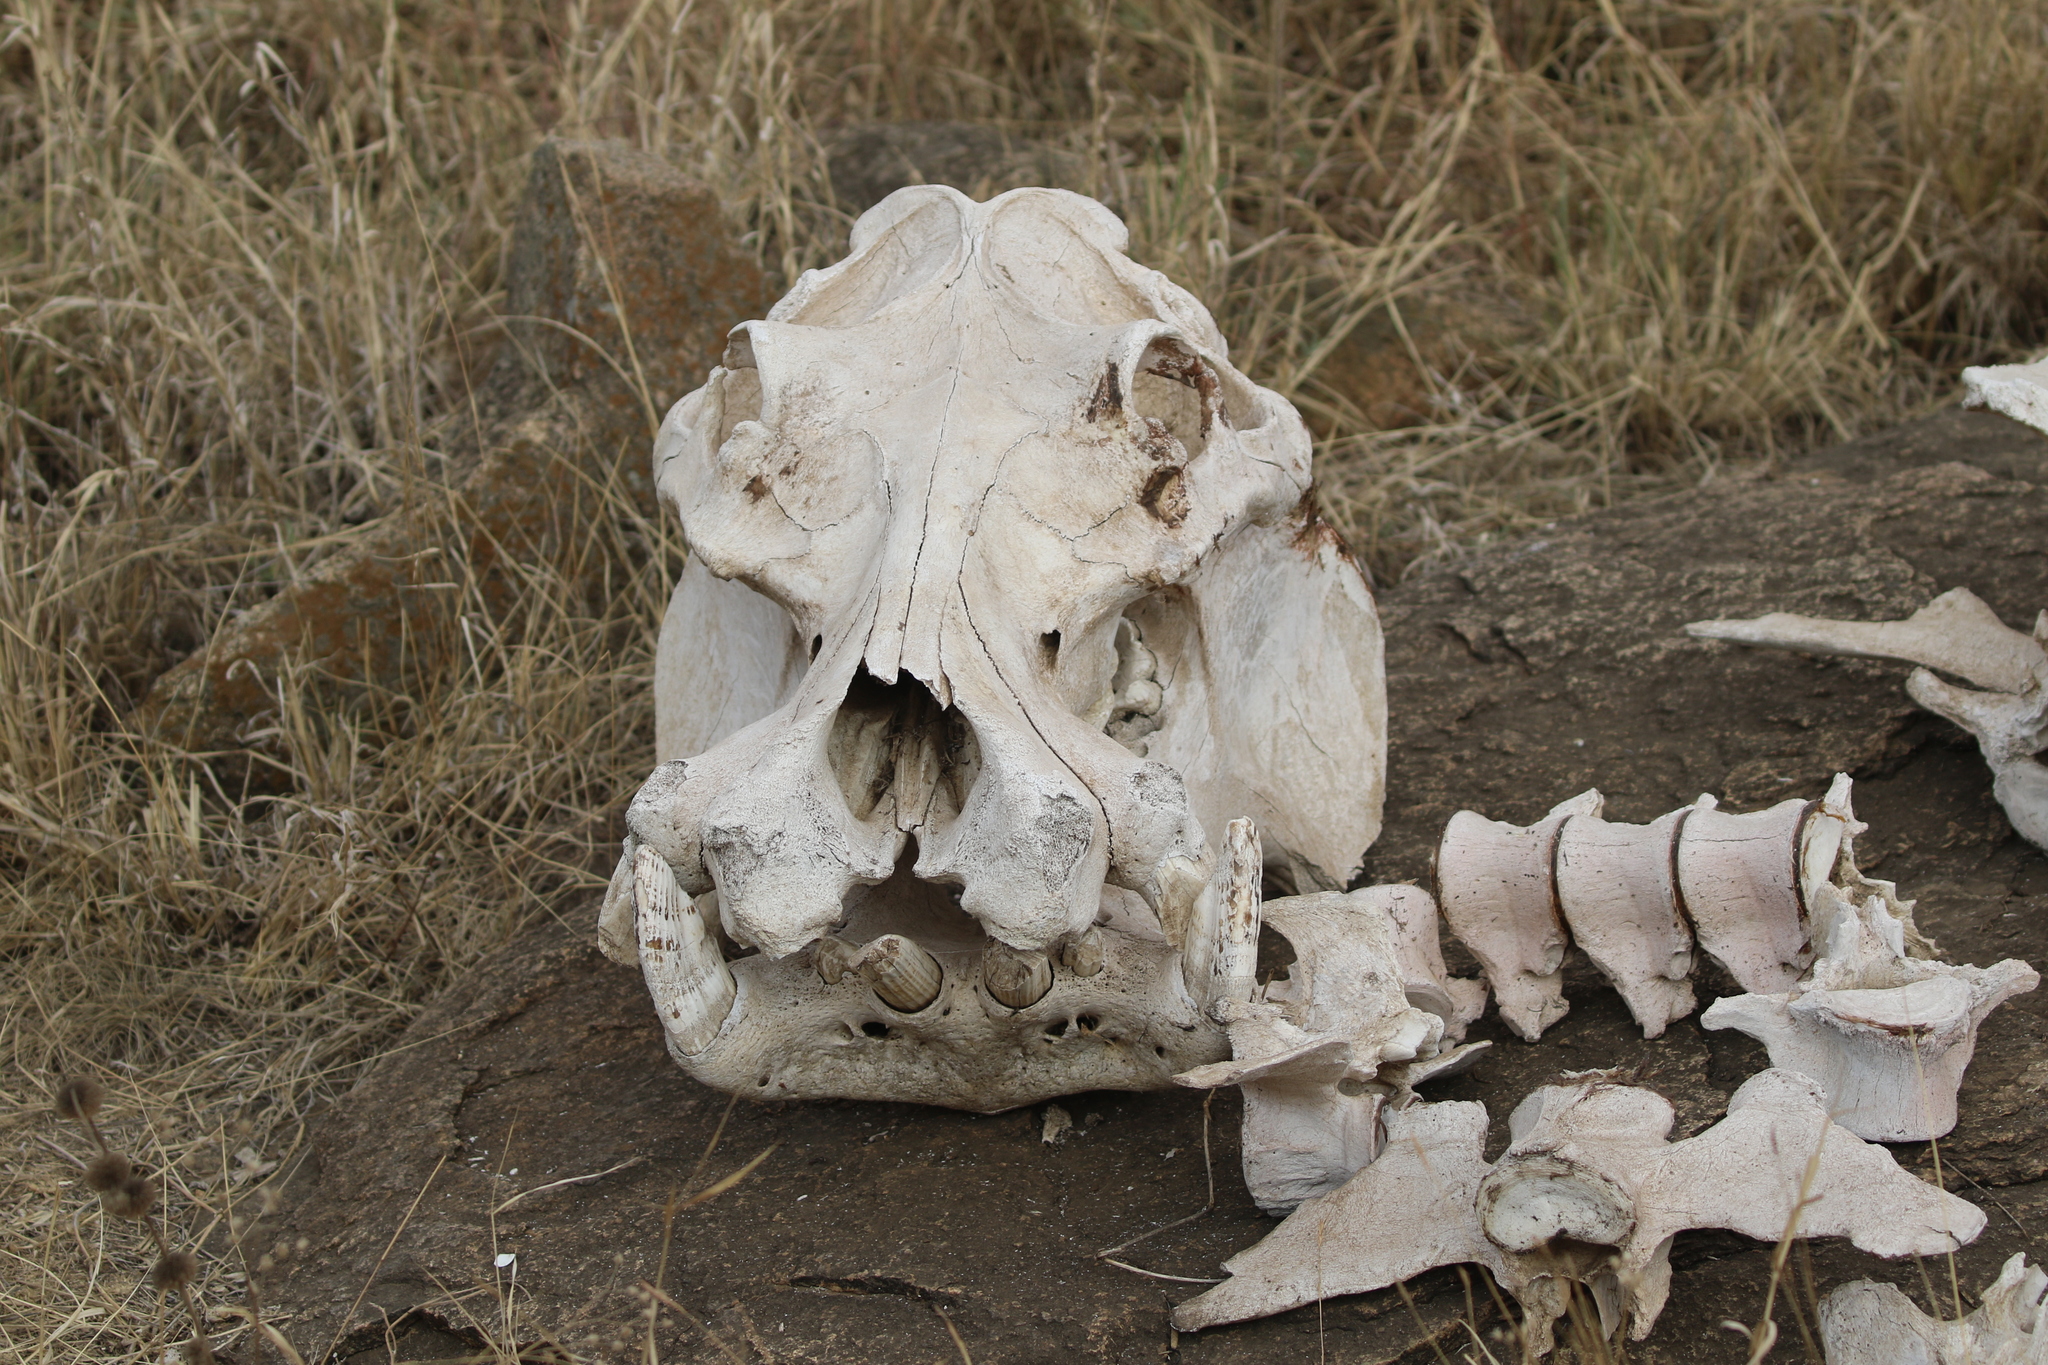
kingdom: Animalia
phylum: Chordata
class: Mammalia
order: Artiodactyla
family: Hippopotamidae
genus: Hippopotamus
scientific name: Hippopotamus amphibius
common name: Common hippopotamus
